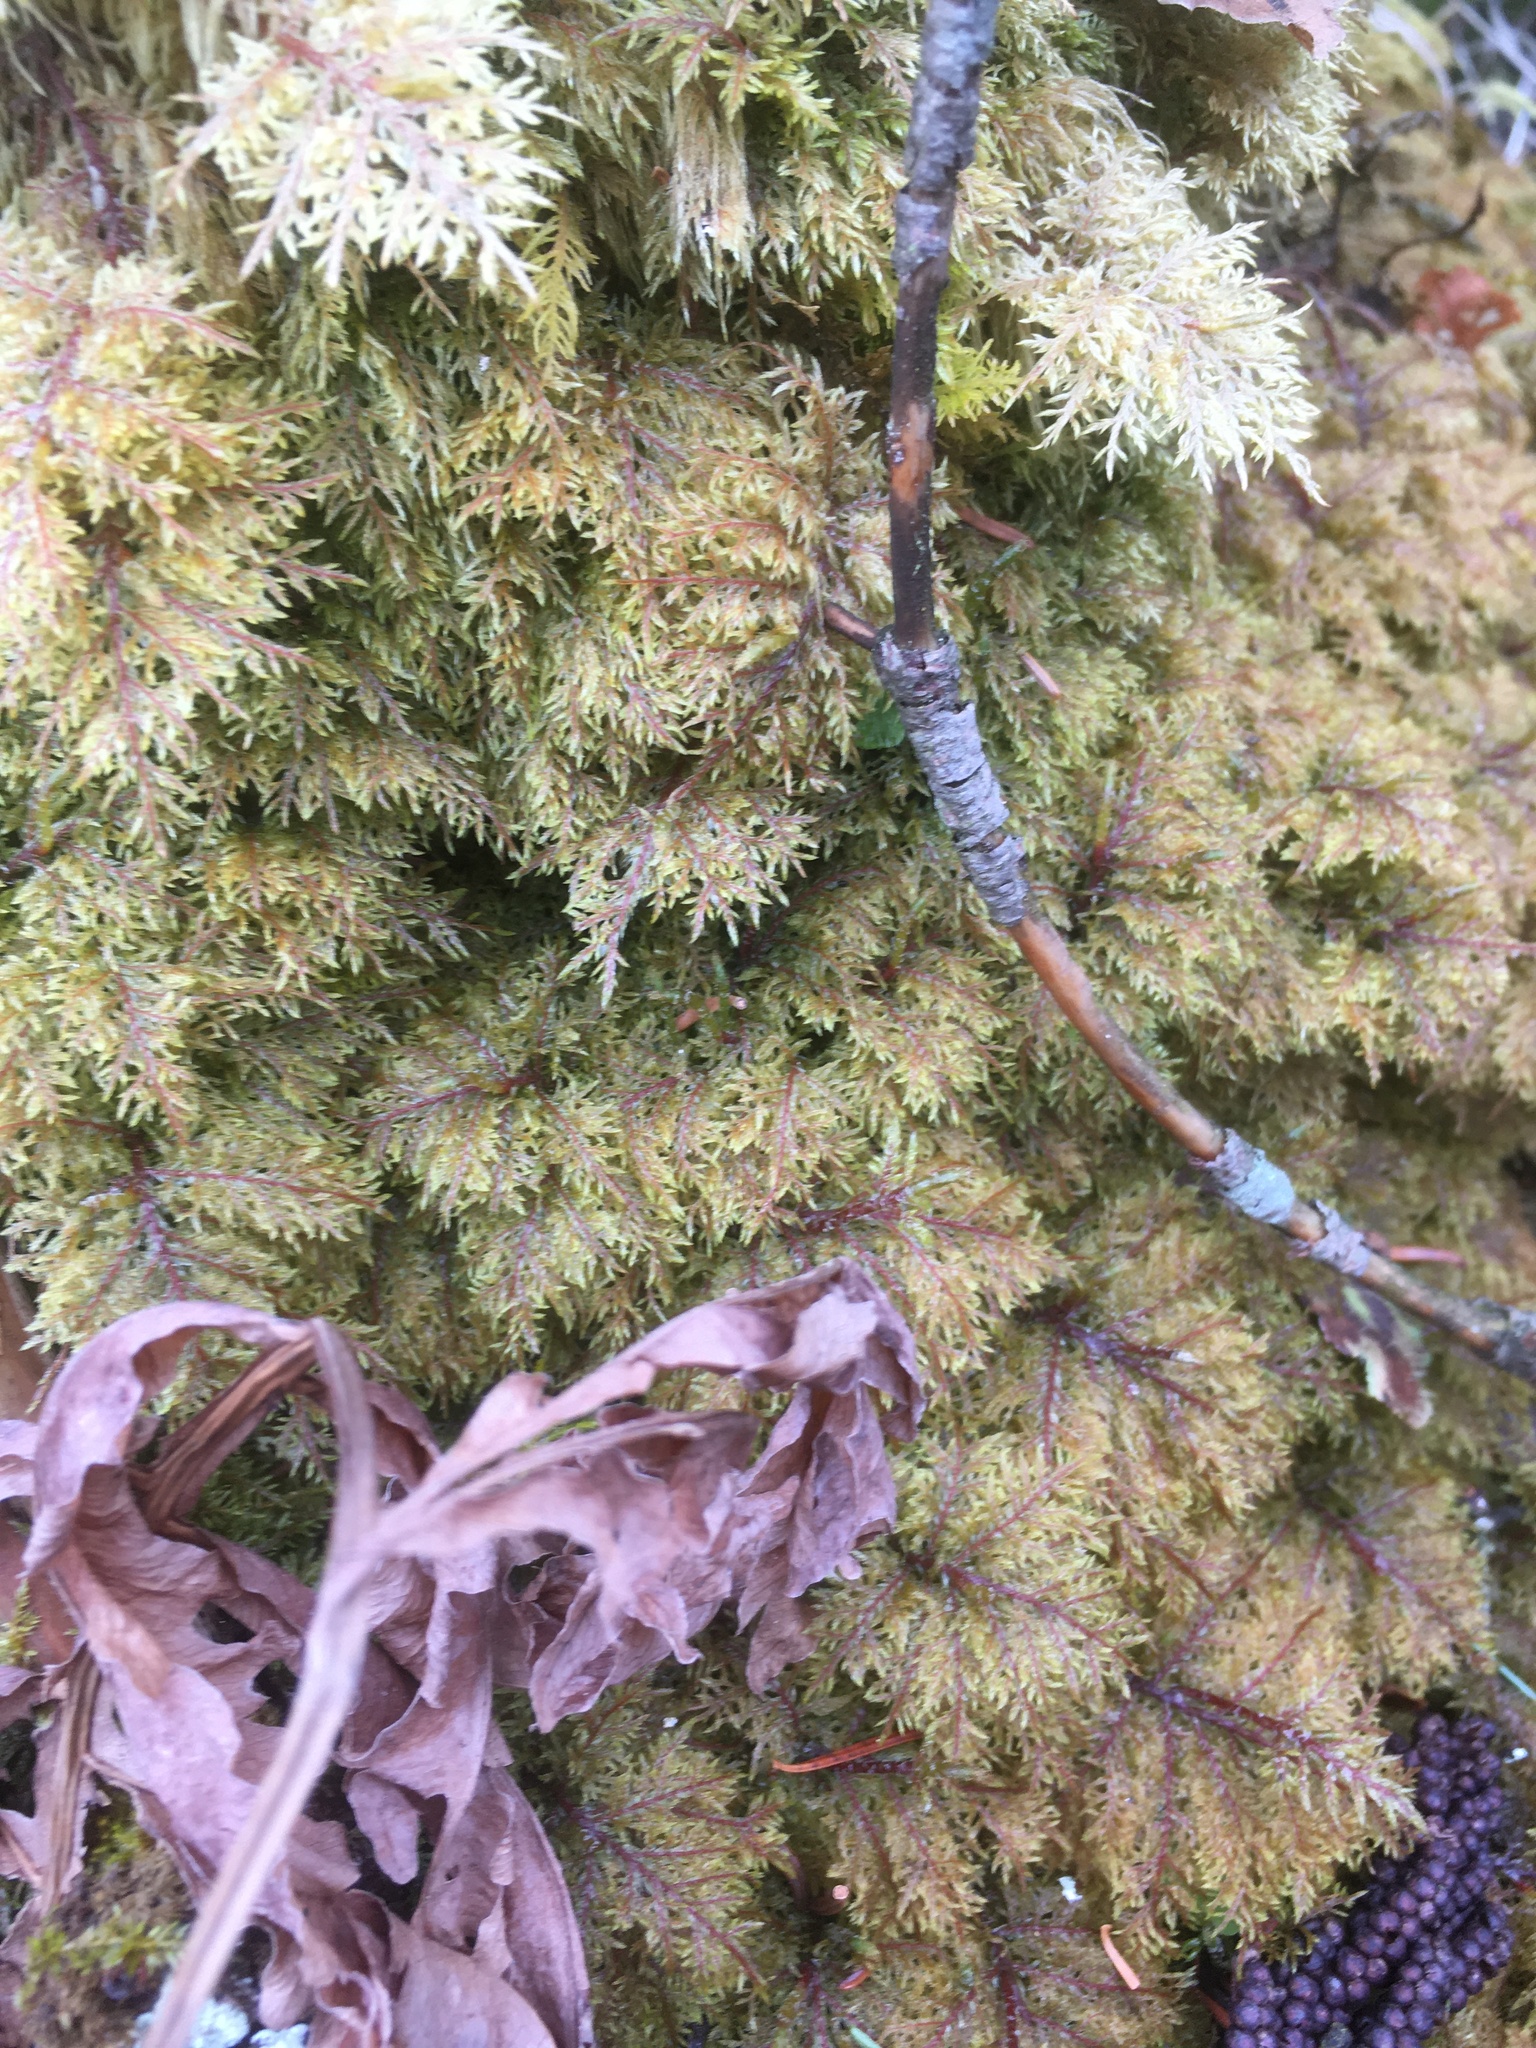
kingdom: Plantae
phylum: Bryophyta
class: Bryopsida
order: Hypnales
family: Hylocomiaceae
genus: Hylocomium
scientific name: Hylocomium splendens
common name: Stairstep moss
